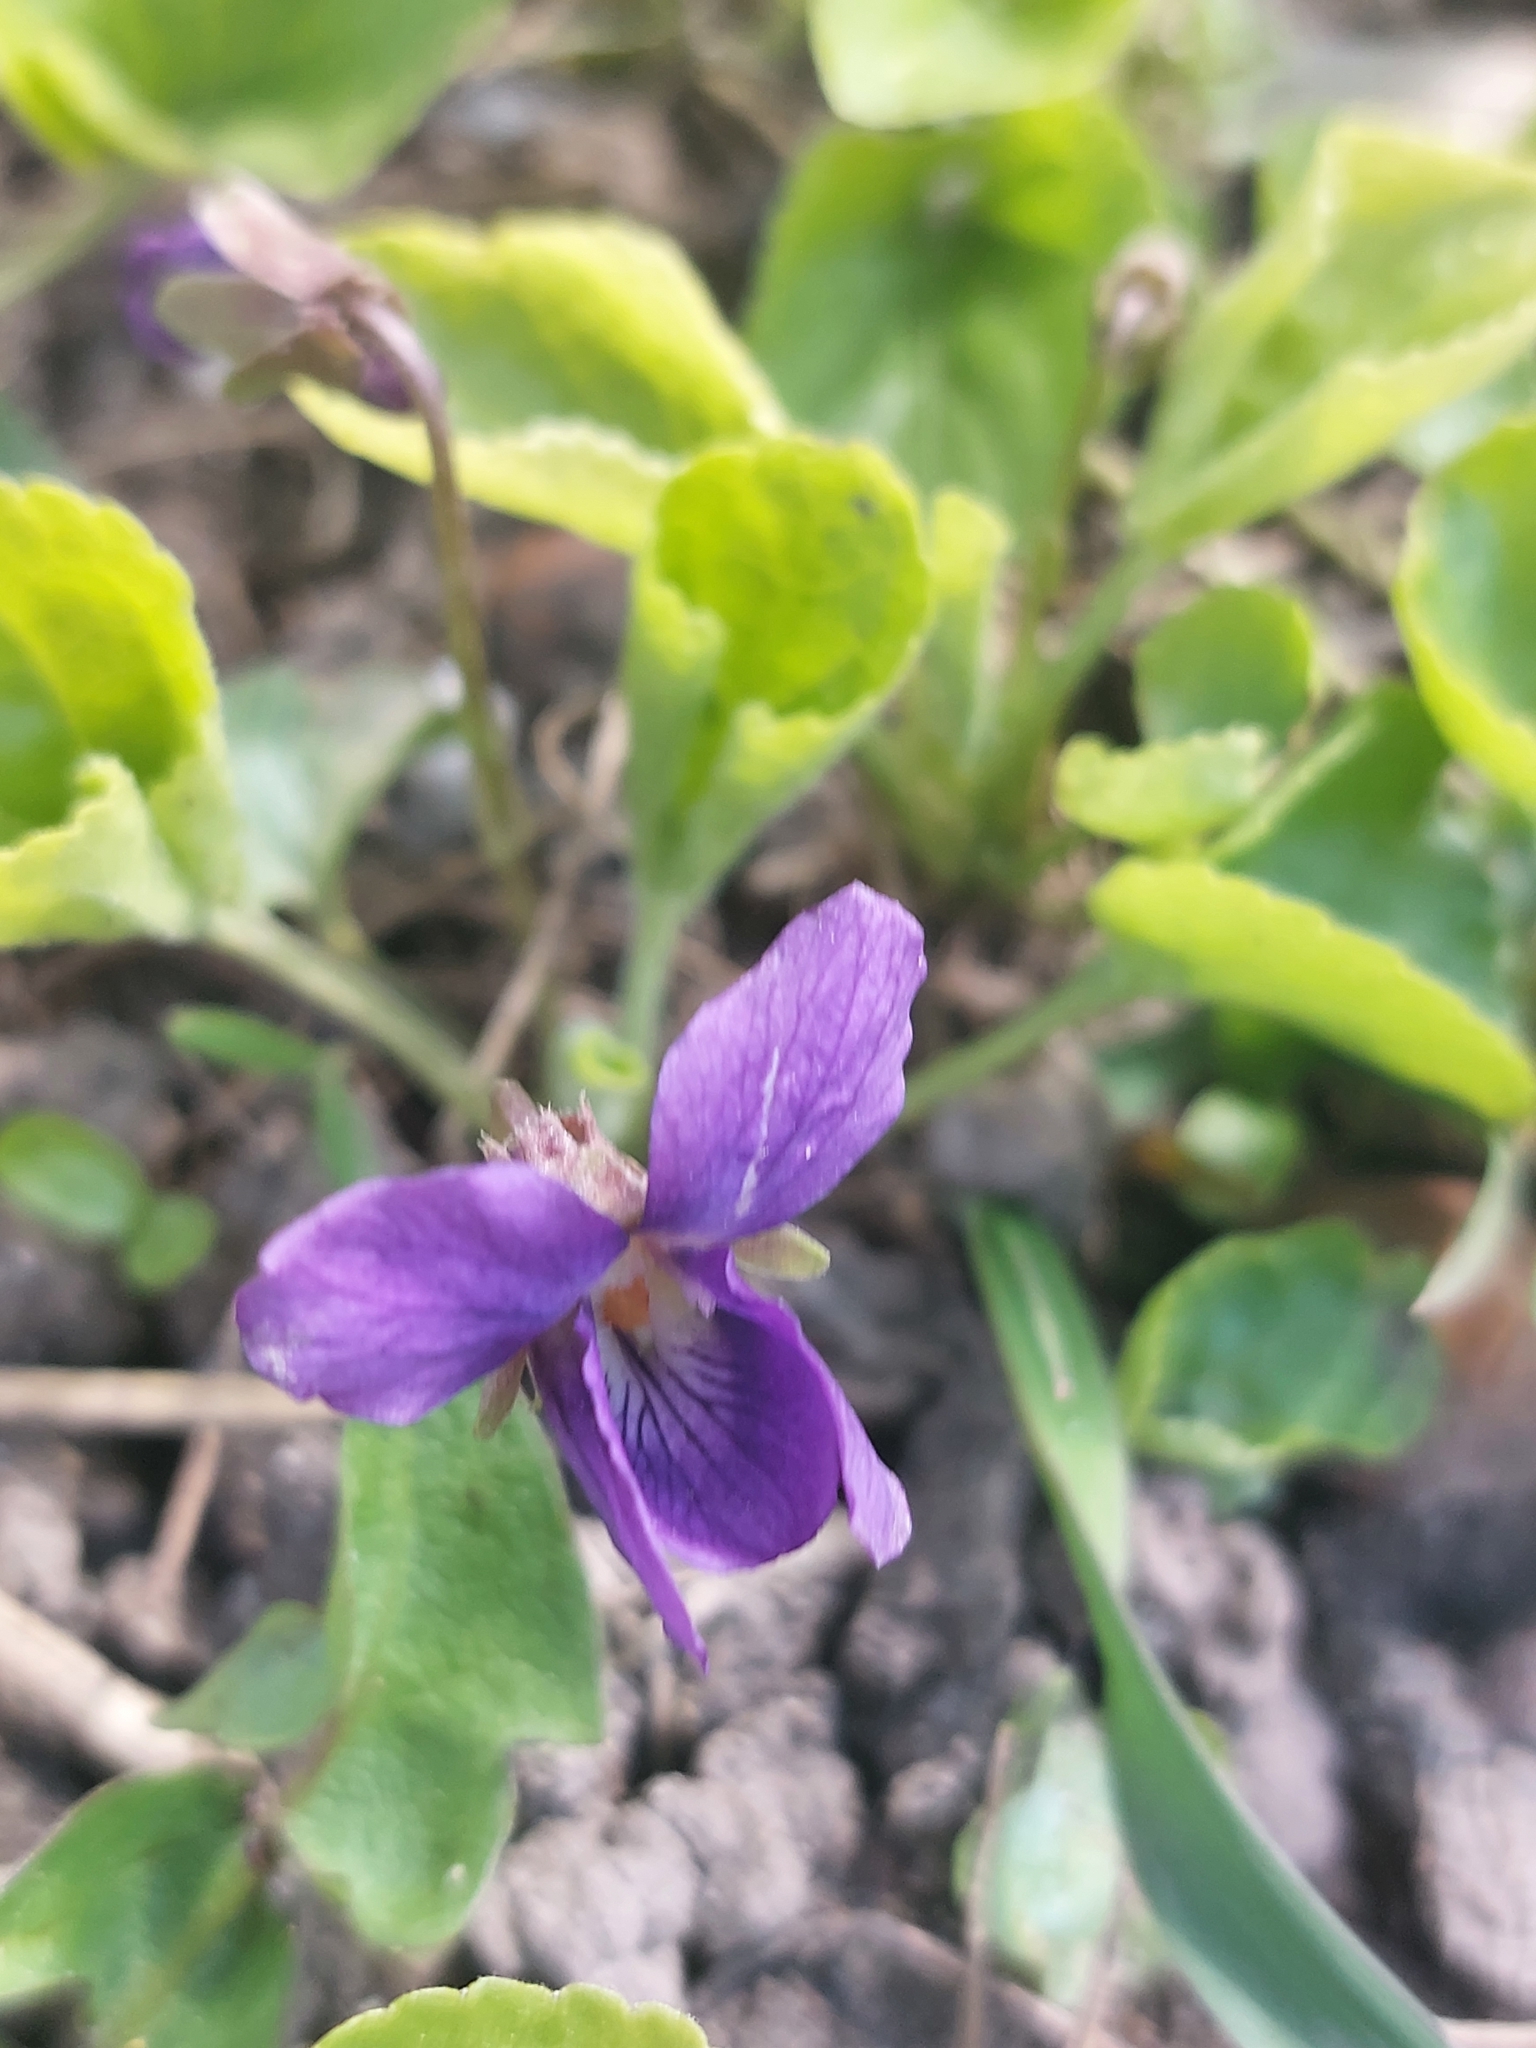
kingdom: Plantae
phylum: Tracheophyta
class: Magnoliopsida
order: Malpighiales
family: Violaceae
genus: Viola
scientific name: Viola odorata
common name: Sweet violet
